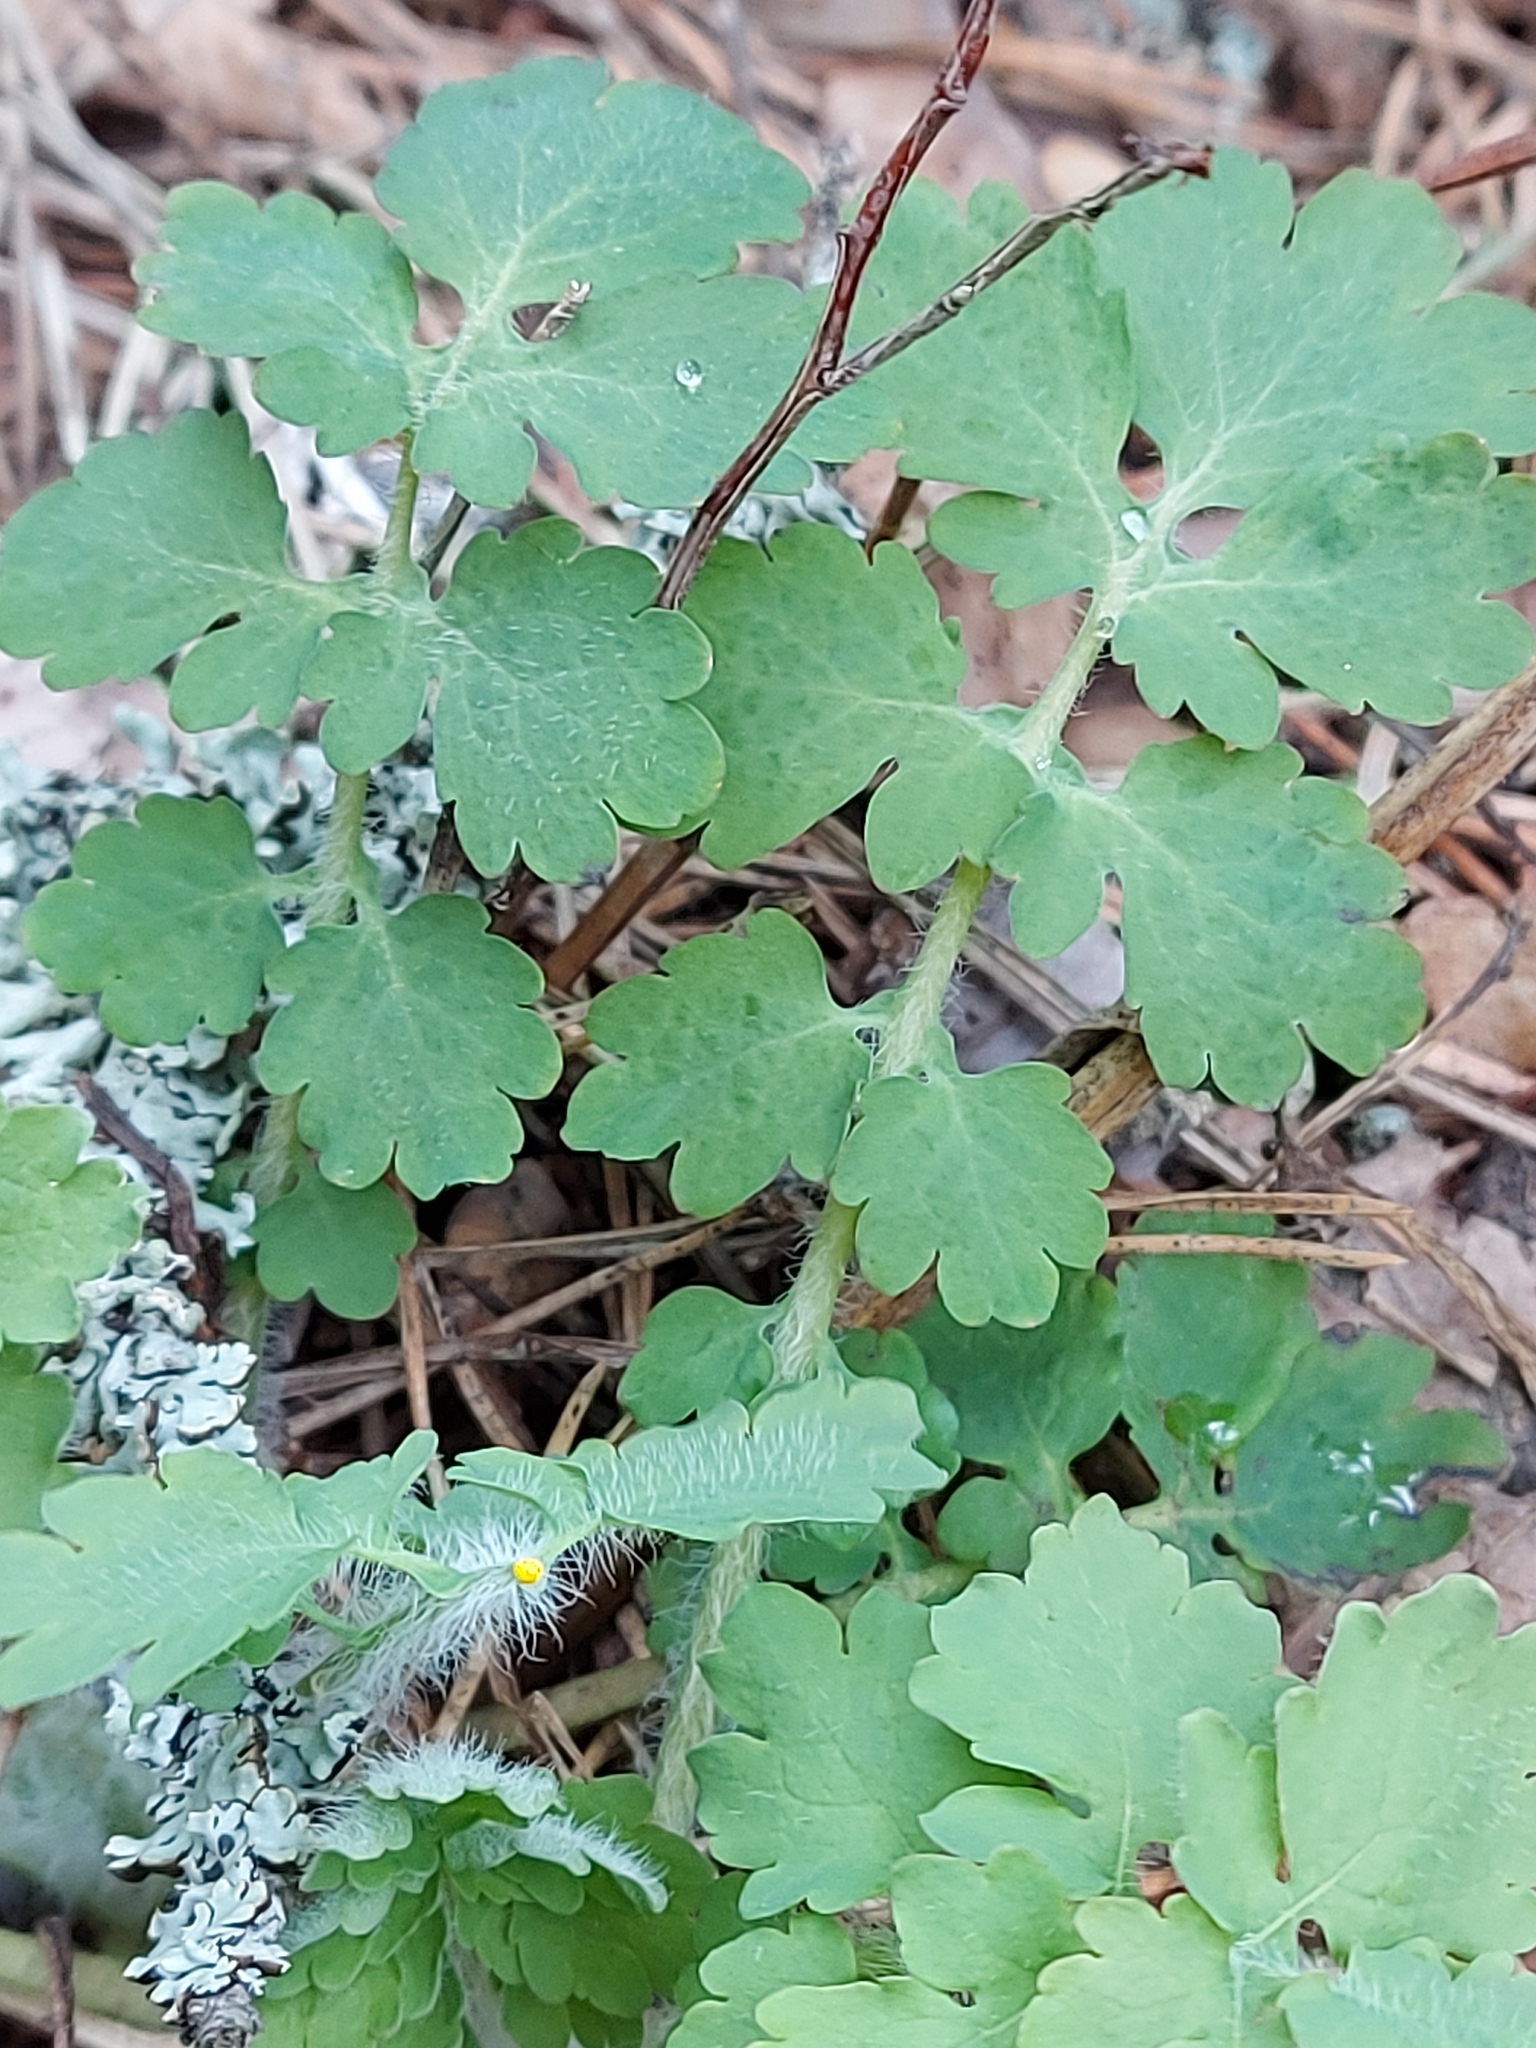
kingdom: Plantae
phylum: Tracheophyta
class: Magnoliopsida
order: Ranunculales
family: Papaveraceae
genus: Chelidonium
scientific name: Chelidonium majus
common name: Greater celandine
